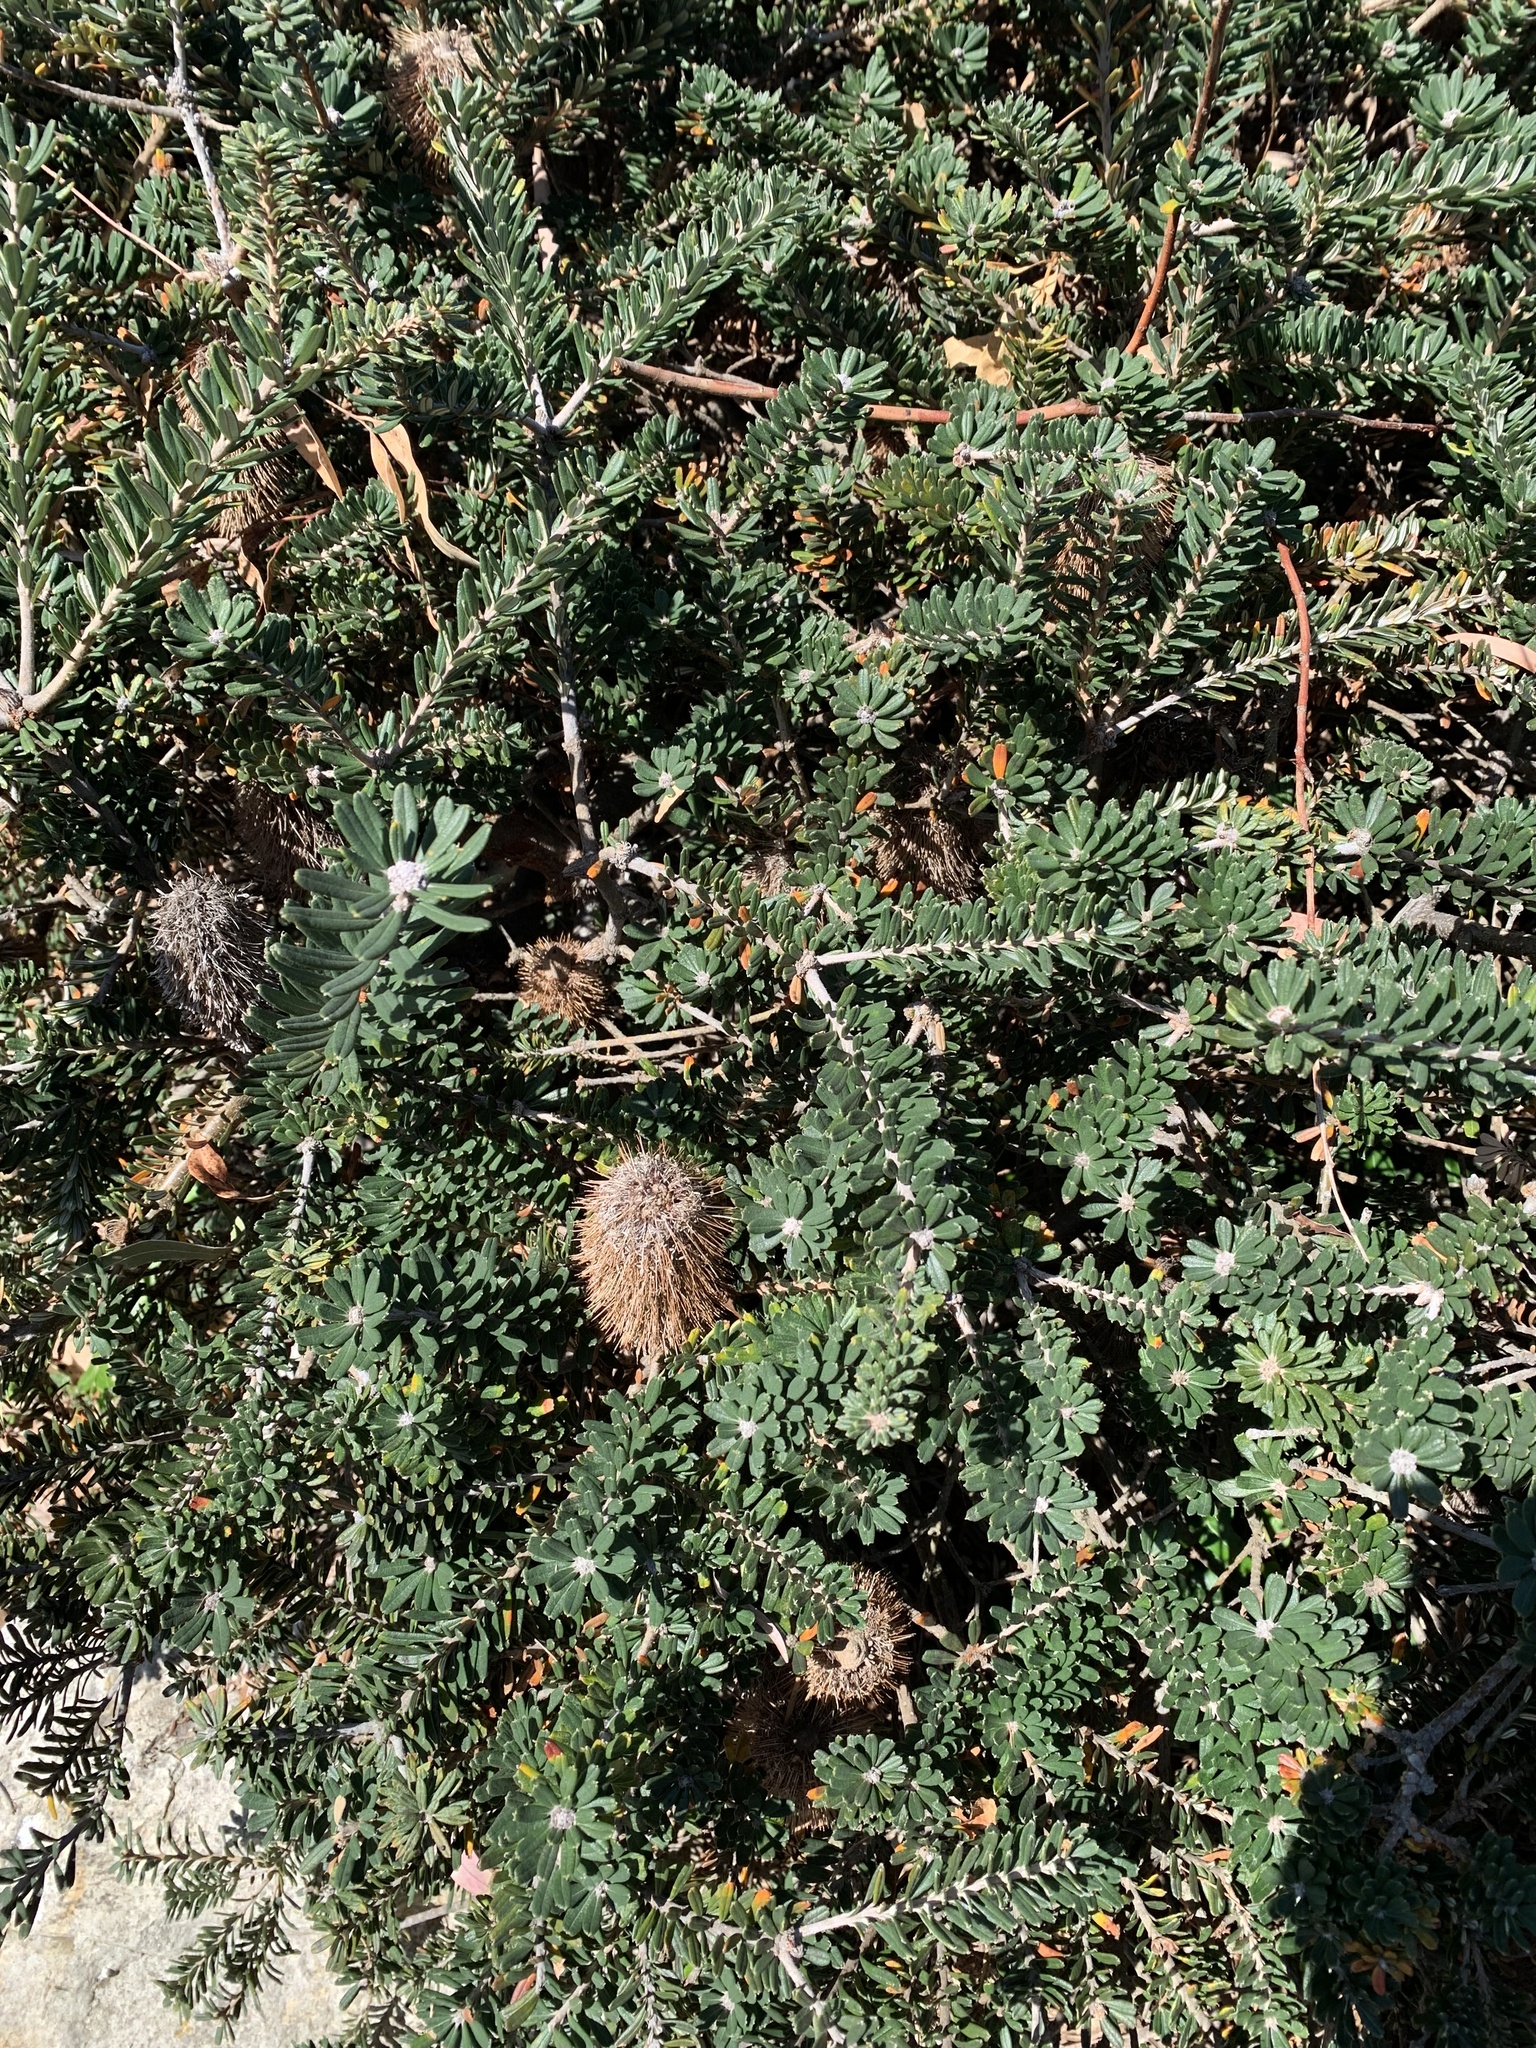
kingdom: Plantae
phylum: Tracheophyta
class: Magnoliopsida
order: Proteales
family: Proteaceae
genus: Banksia
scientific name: Banksia marginata
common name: Silver banksia
